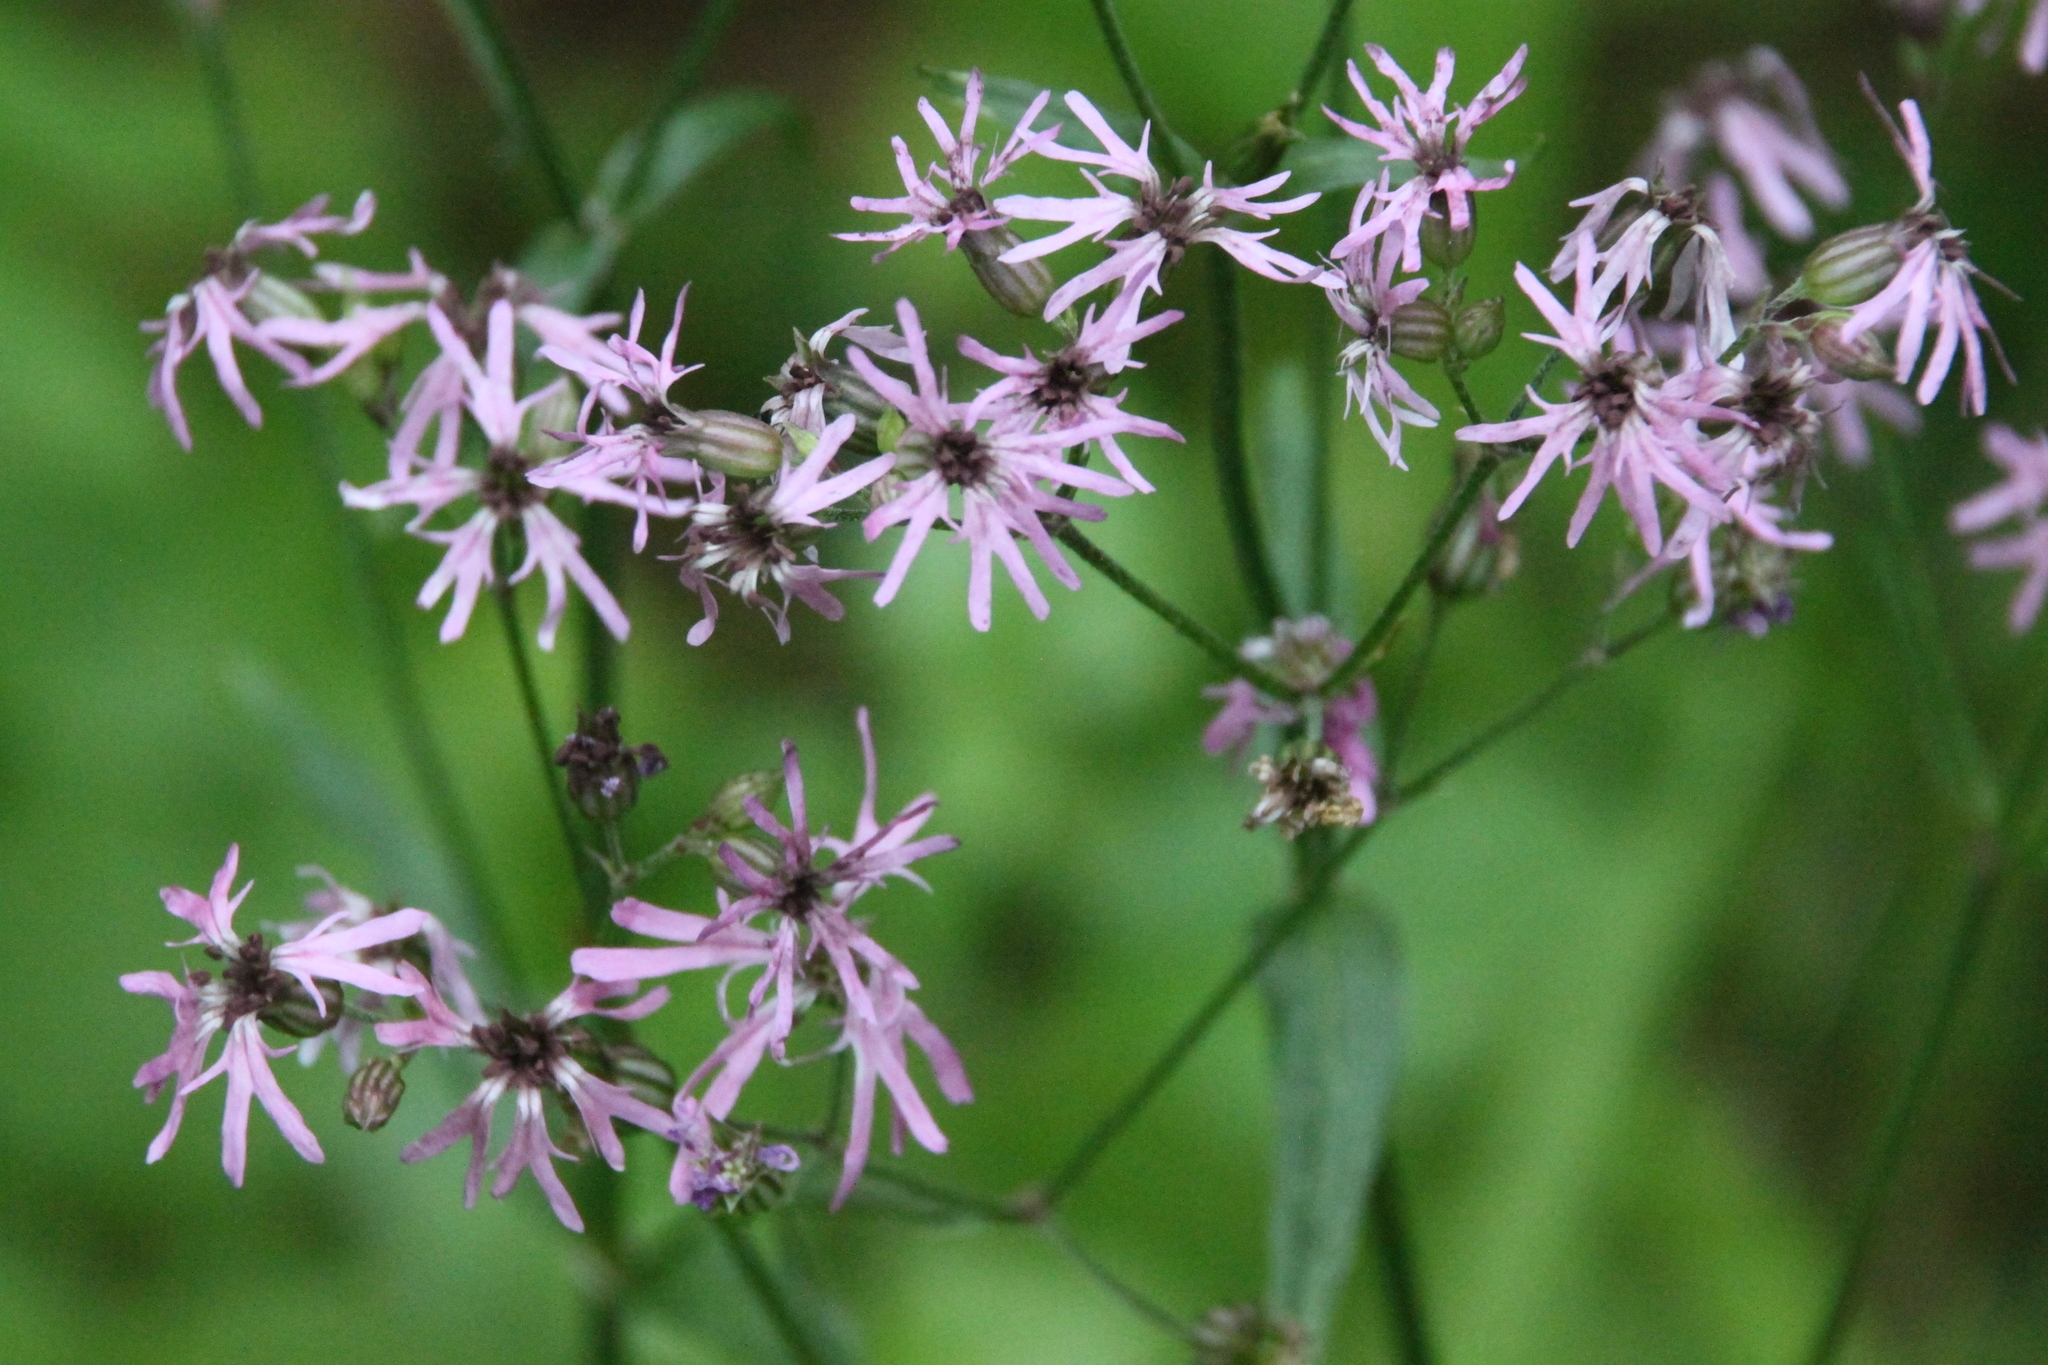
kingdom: Plantae
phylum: Tracheophyta
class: Magnoliopsida
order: Caryophyllales
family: Caryophyllaceae
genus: Silene
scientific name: Silene flos-cuculi
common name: Ragged-robin
